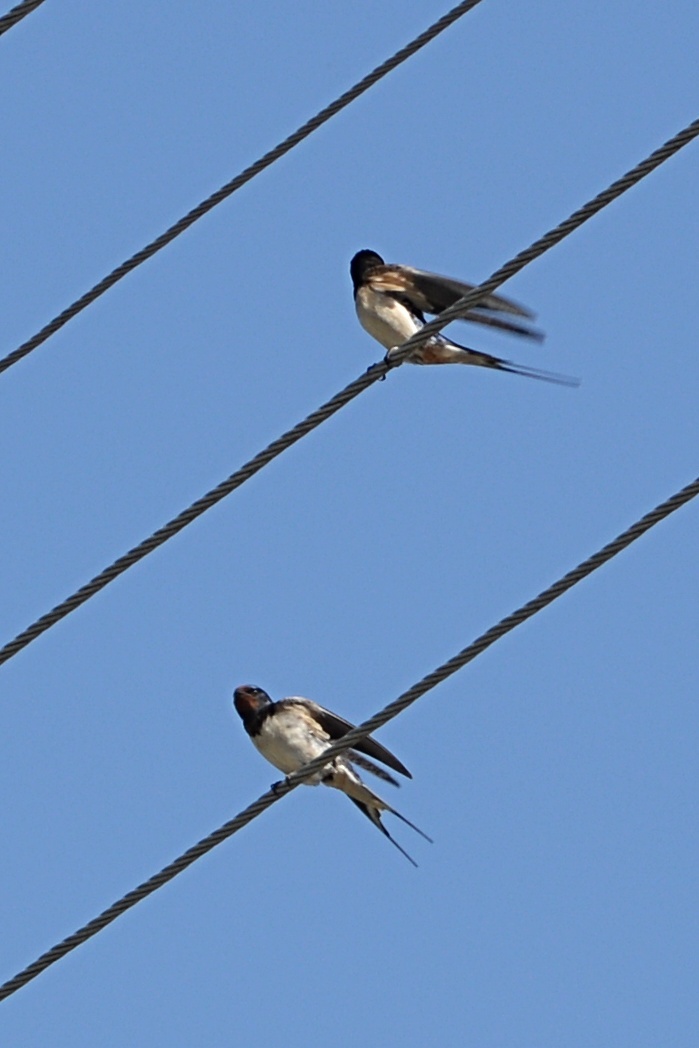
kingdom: Animalia
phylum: Chordata
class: Aves
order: Passeriformes
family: Hirundinidae
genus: Hirundo
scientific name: Hirundo rustica
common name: Barn swallow
